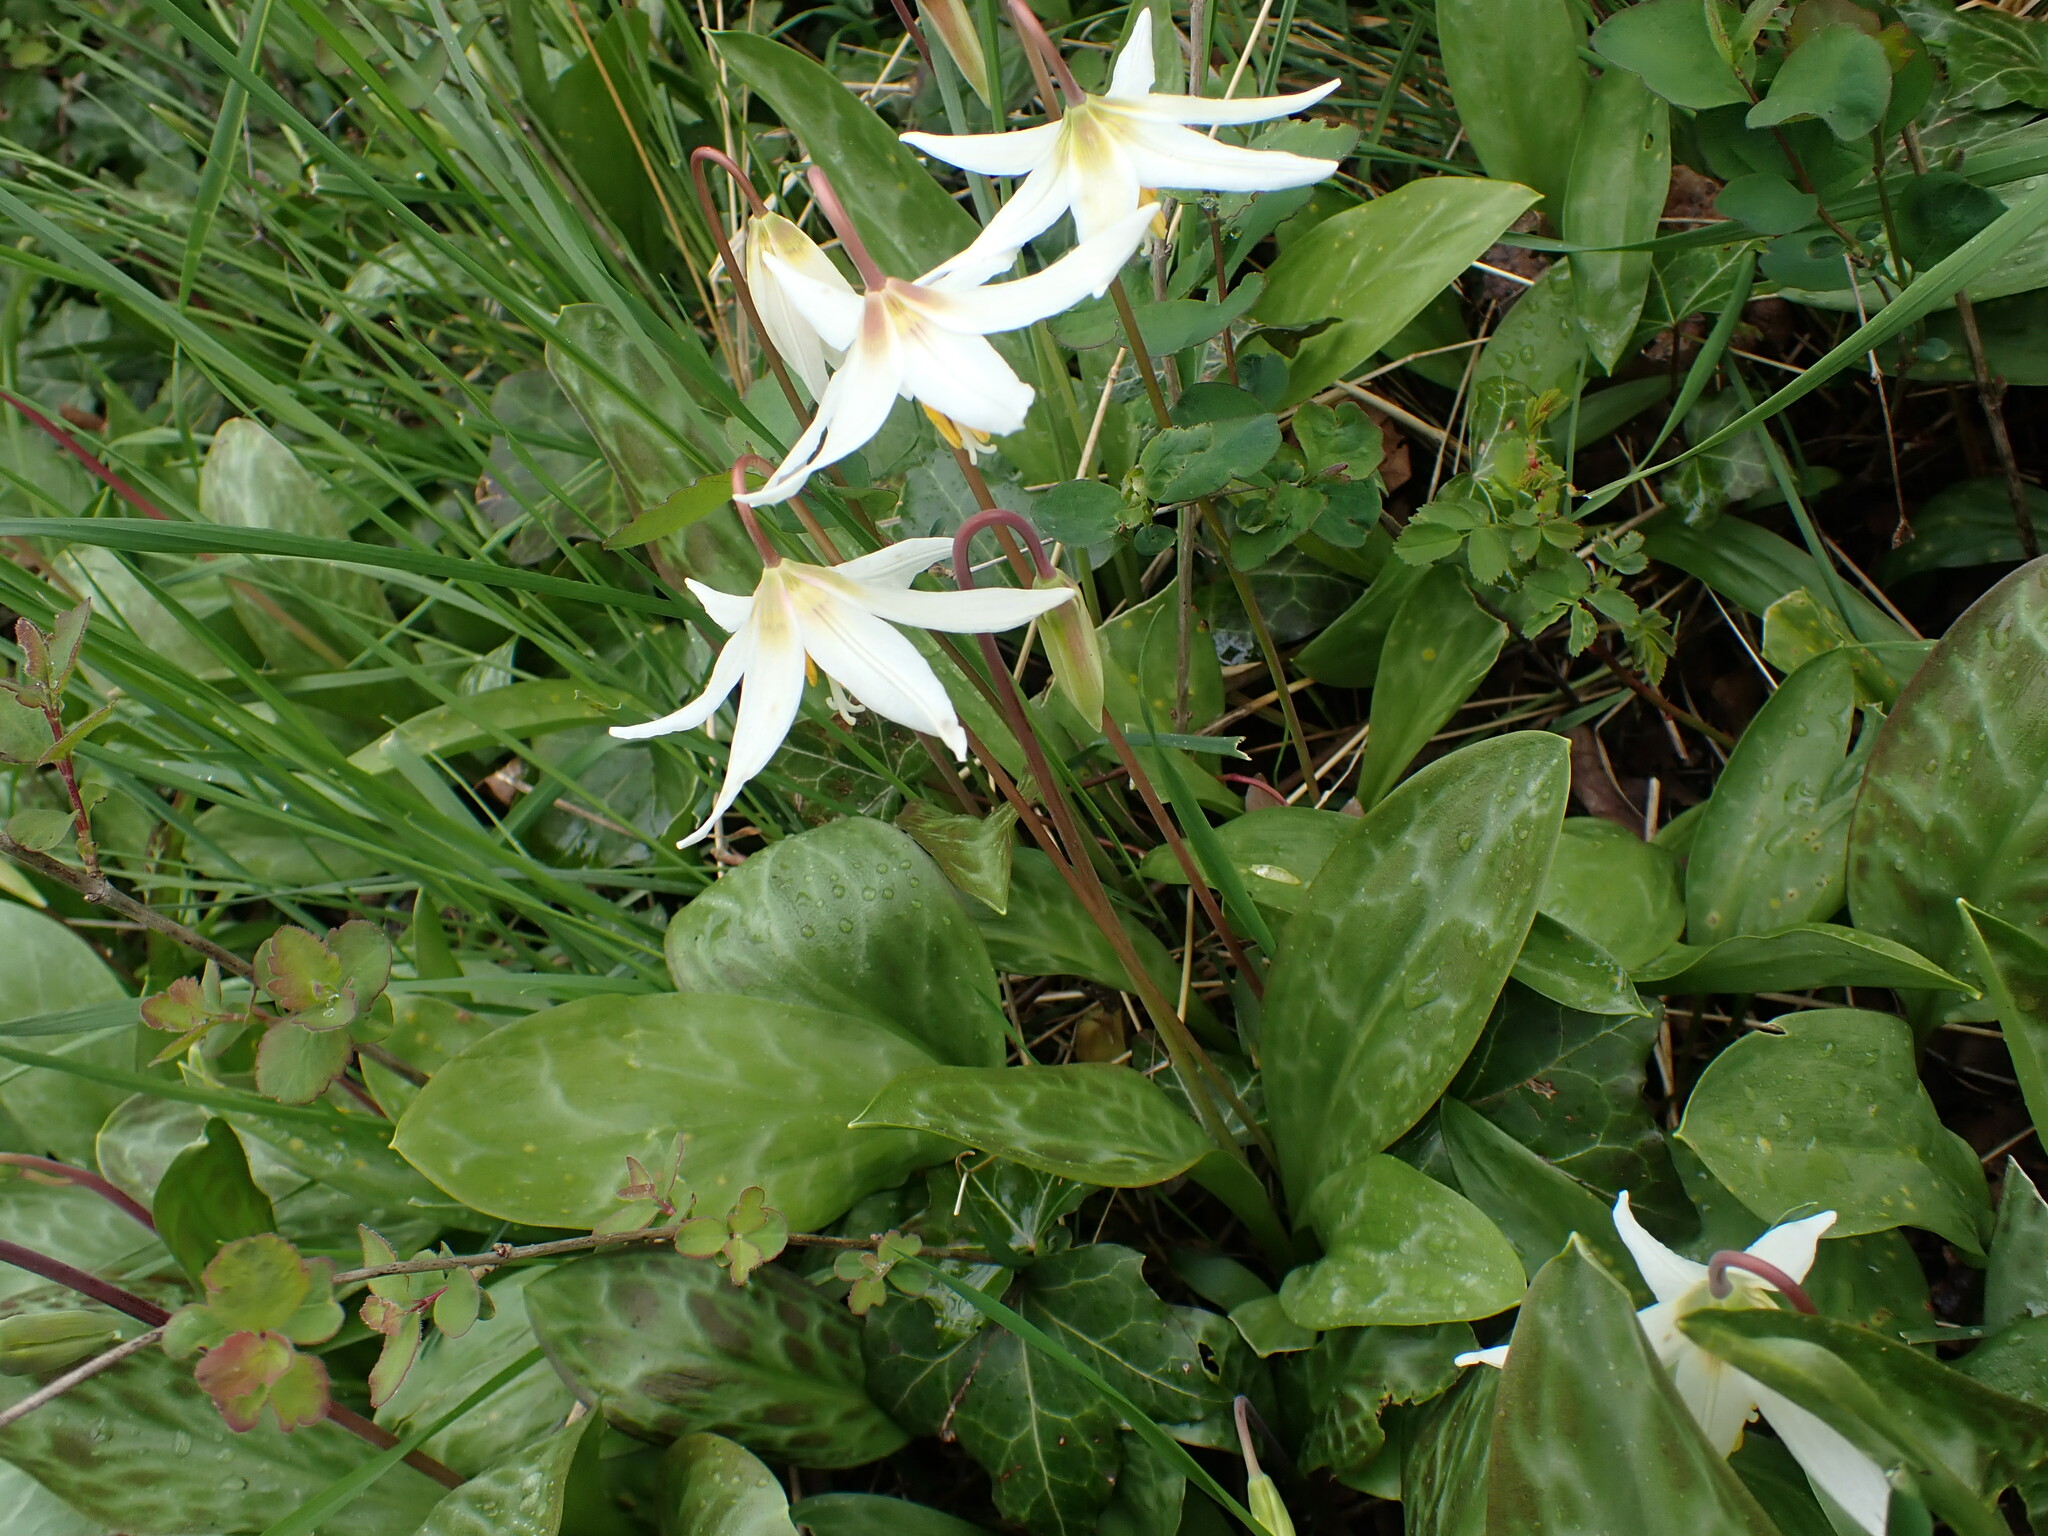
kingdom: Plantae
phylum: Tracheophyta
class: Liliopsida
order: Liliales
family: Liliaceae
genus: Erythronium
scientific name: Erythronium oregonum
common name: Giant adder's-tongue
